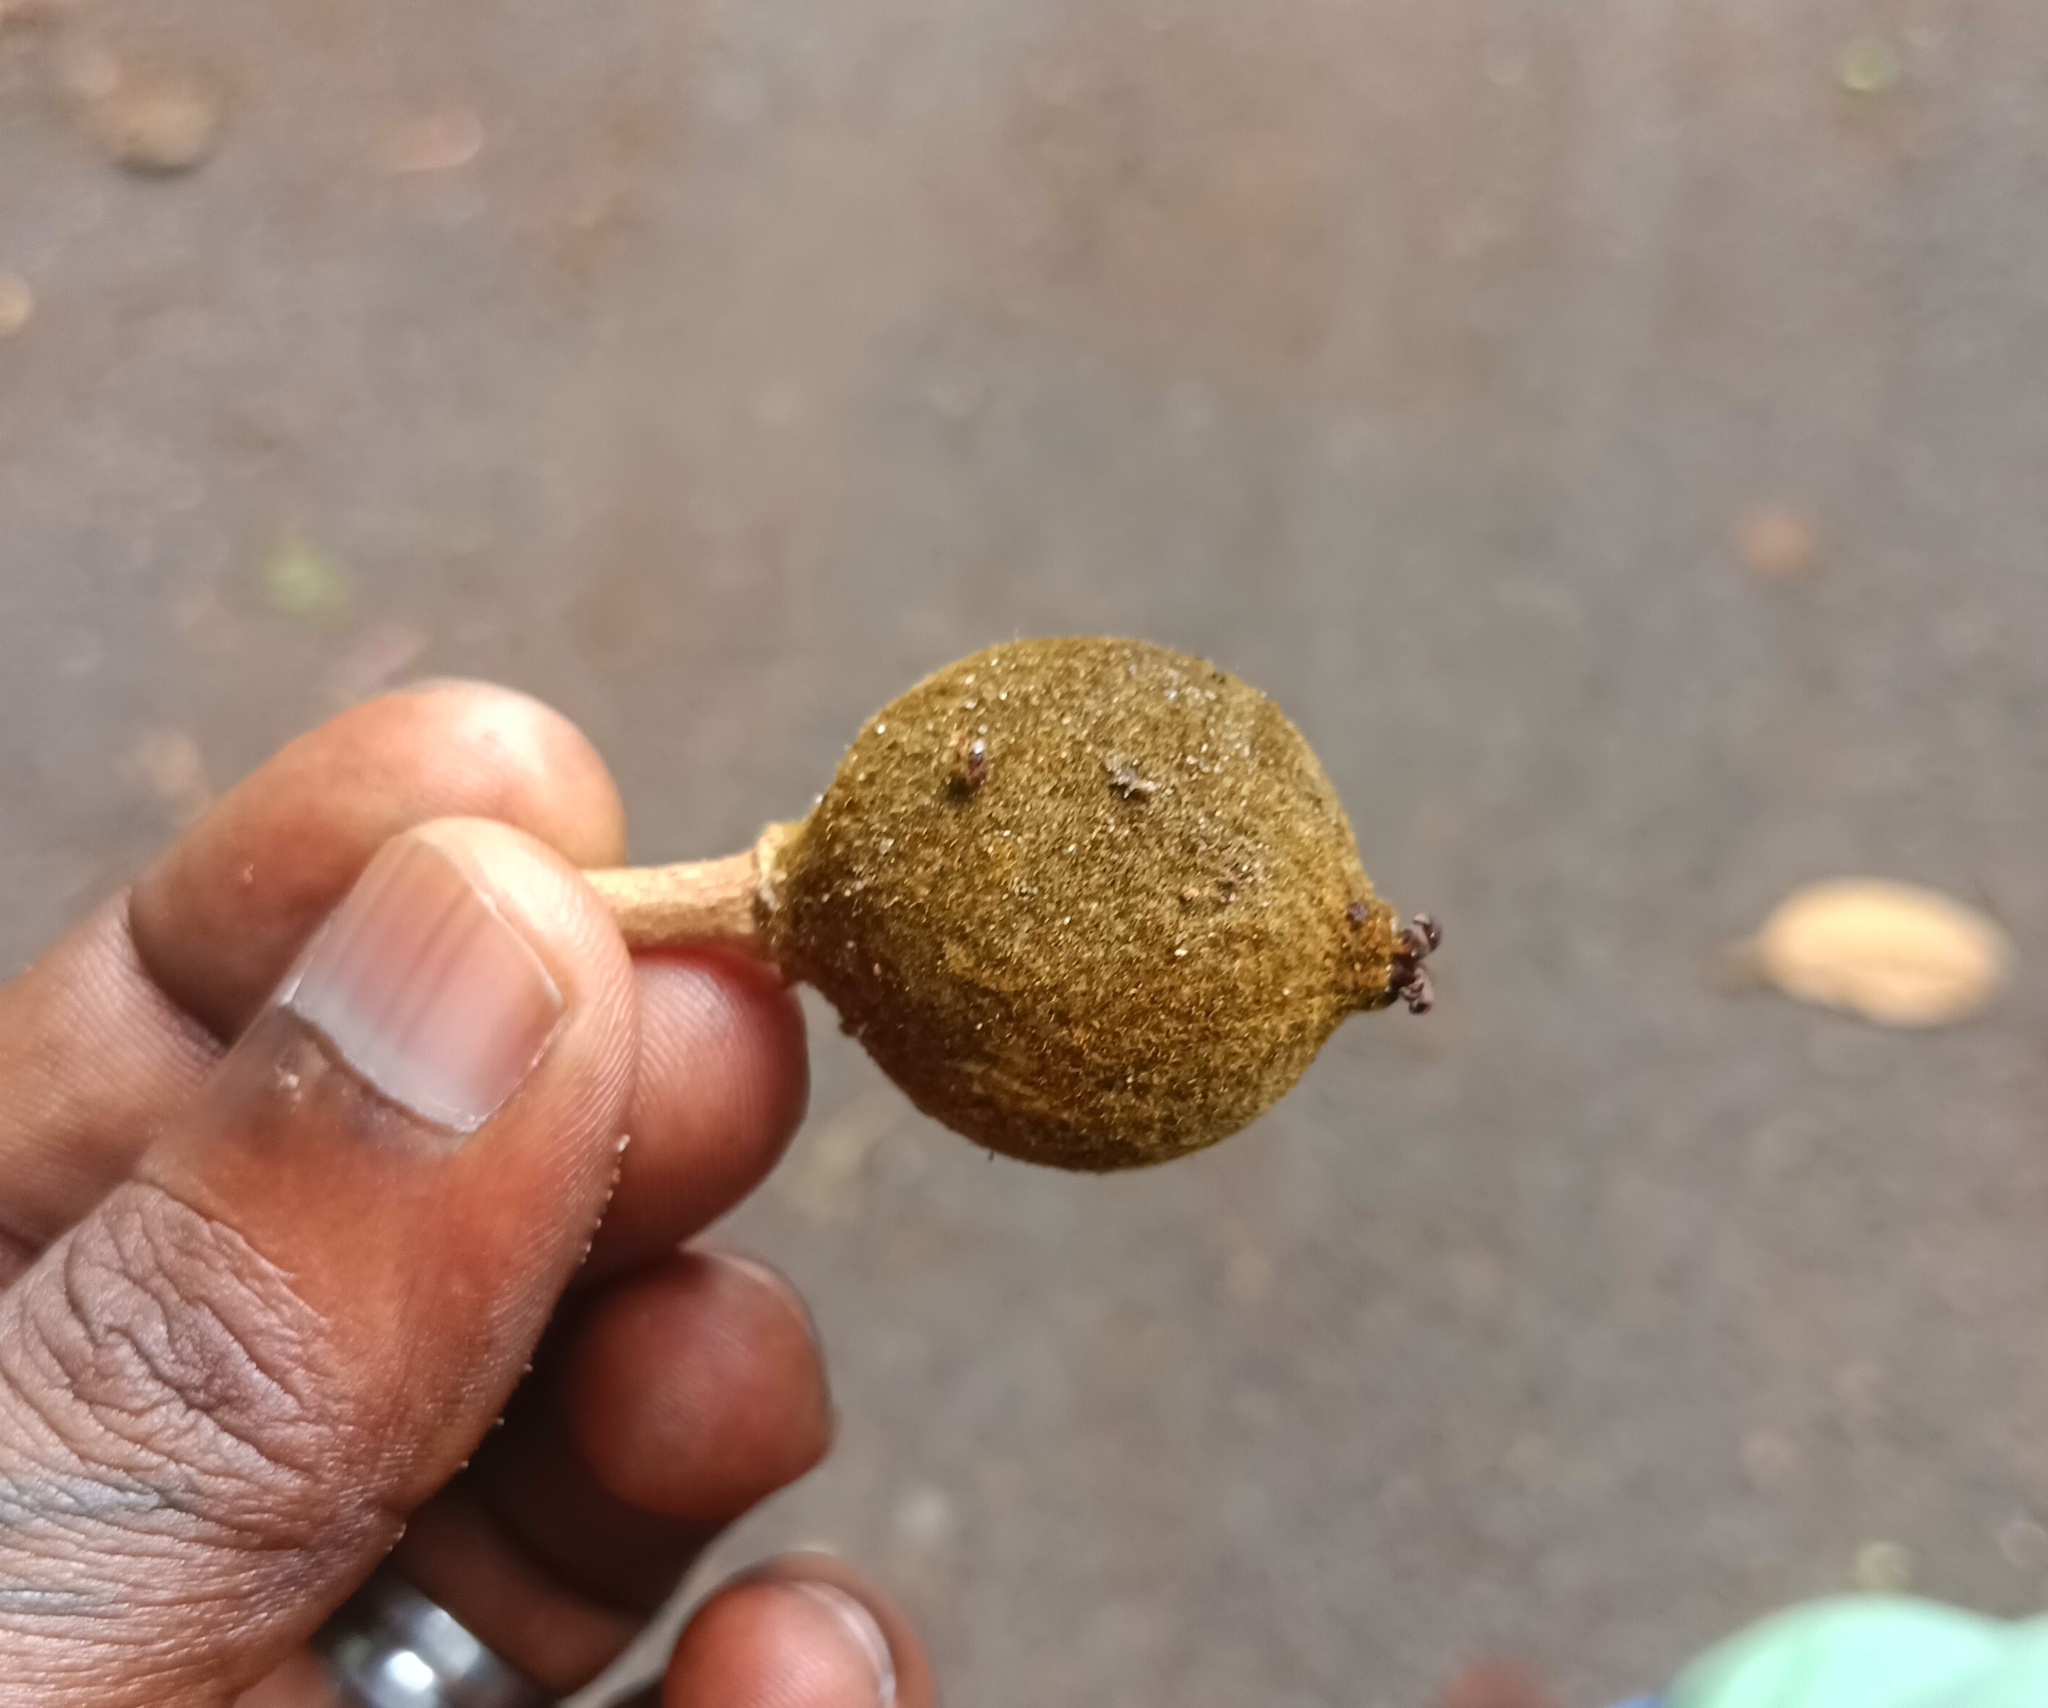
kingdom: Plantae
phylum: Tracheophyta
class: Magnoliopsida
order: Malpighiales
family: Achariaceae
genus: Hydnocarpus
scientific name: Hydnocarpus pentandrus
